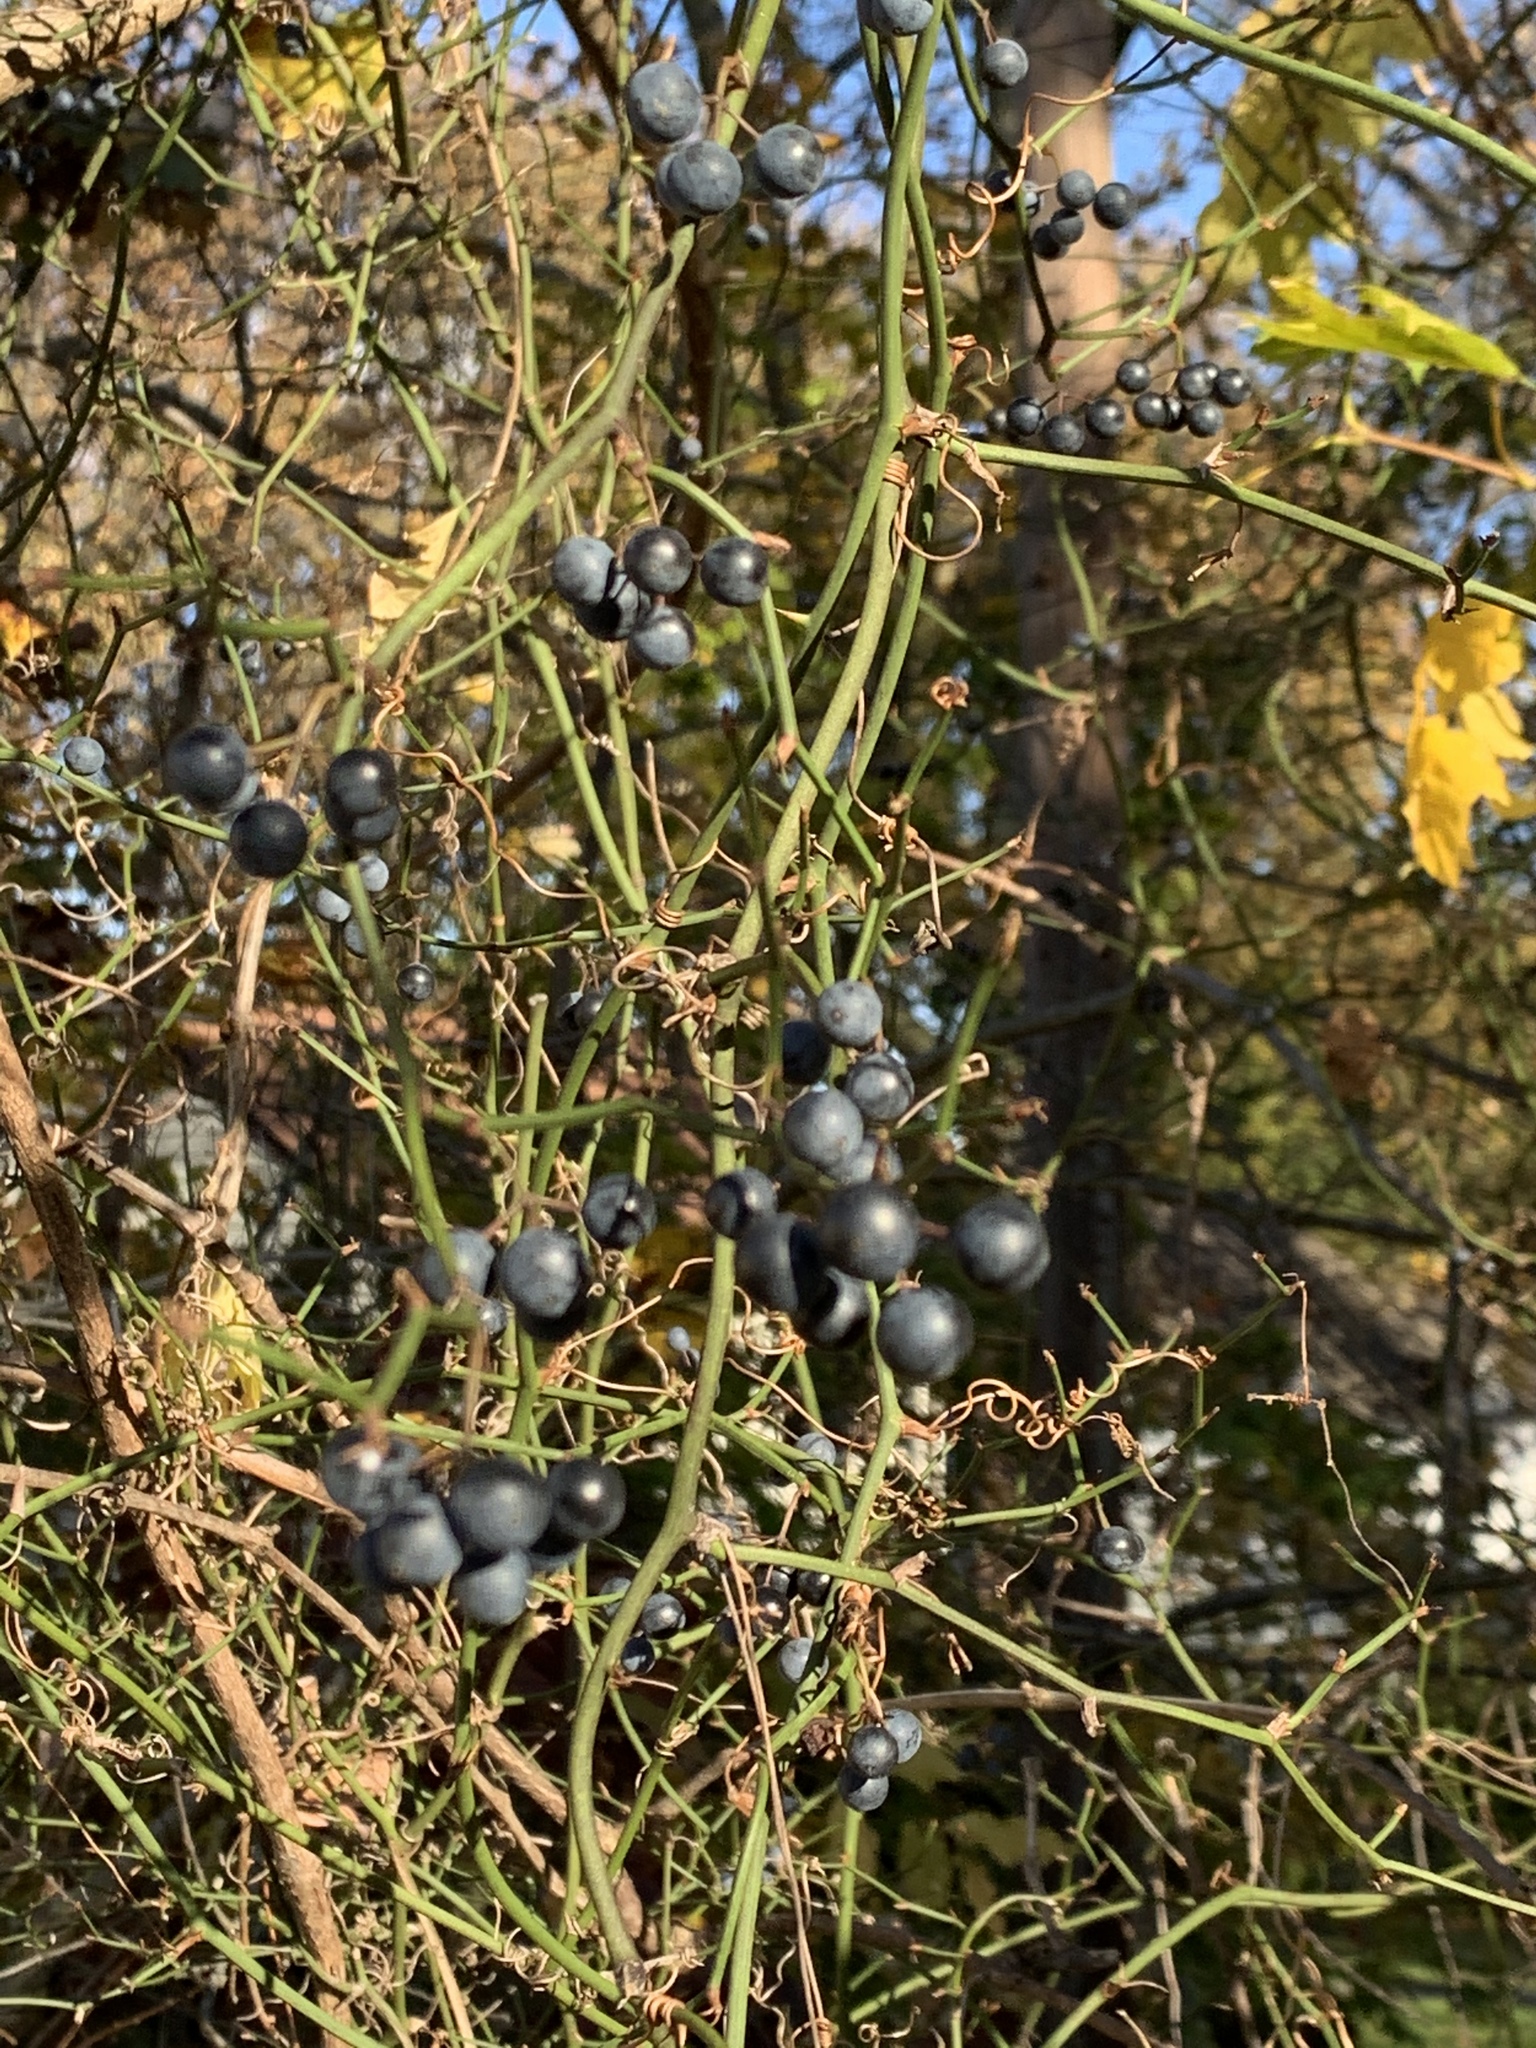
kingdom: Plantae
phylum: Tracheophyta
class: Liliopsida
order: Liliales
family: Smilacaceae
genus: Smilax
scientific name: Smilax rotundifolia
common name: Bullbriar
